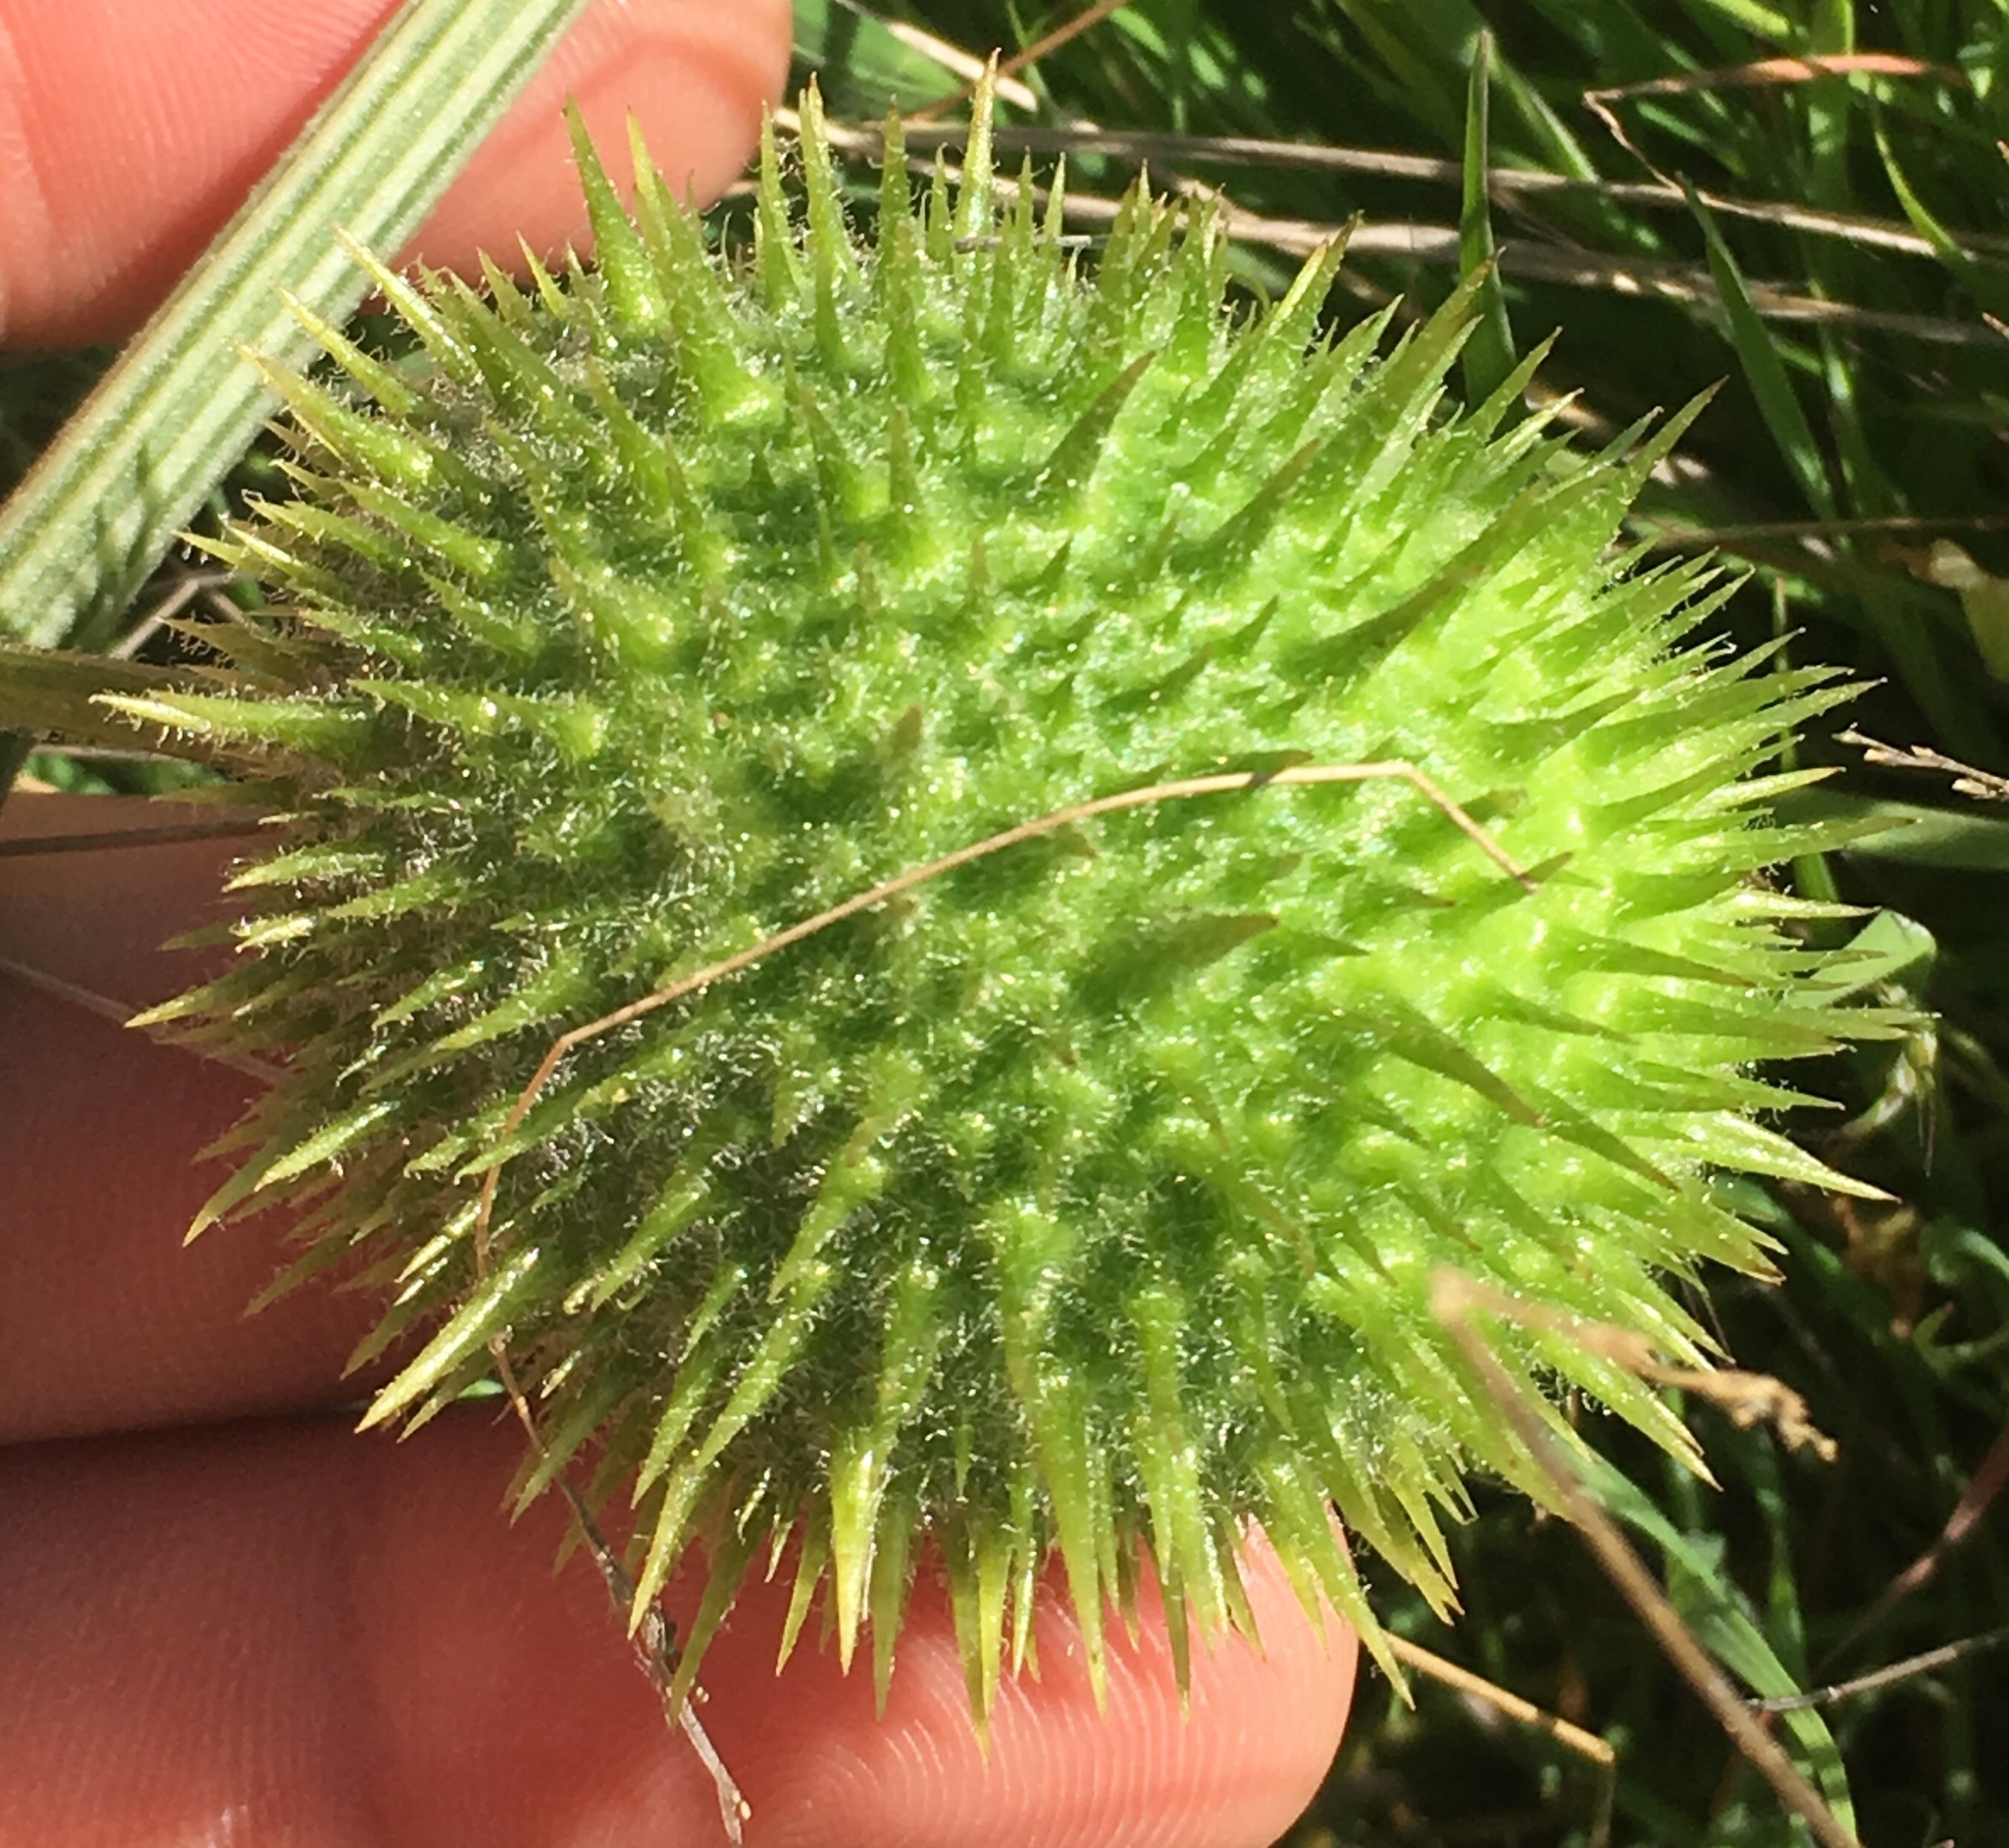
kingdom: Plantae
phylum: Tracheophyta
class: Magnoliopsida
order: Cucurbitales
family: Cucurbitaceae
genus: Marah
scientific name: Marah macrocarpa
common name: Cucamonga manroot
